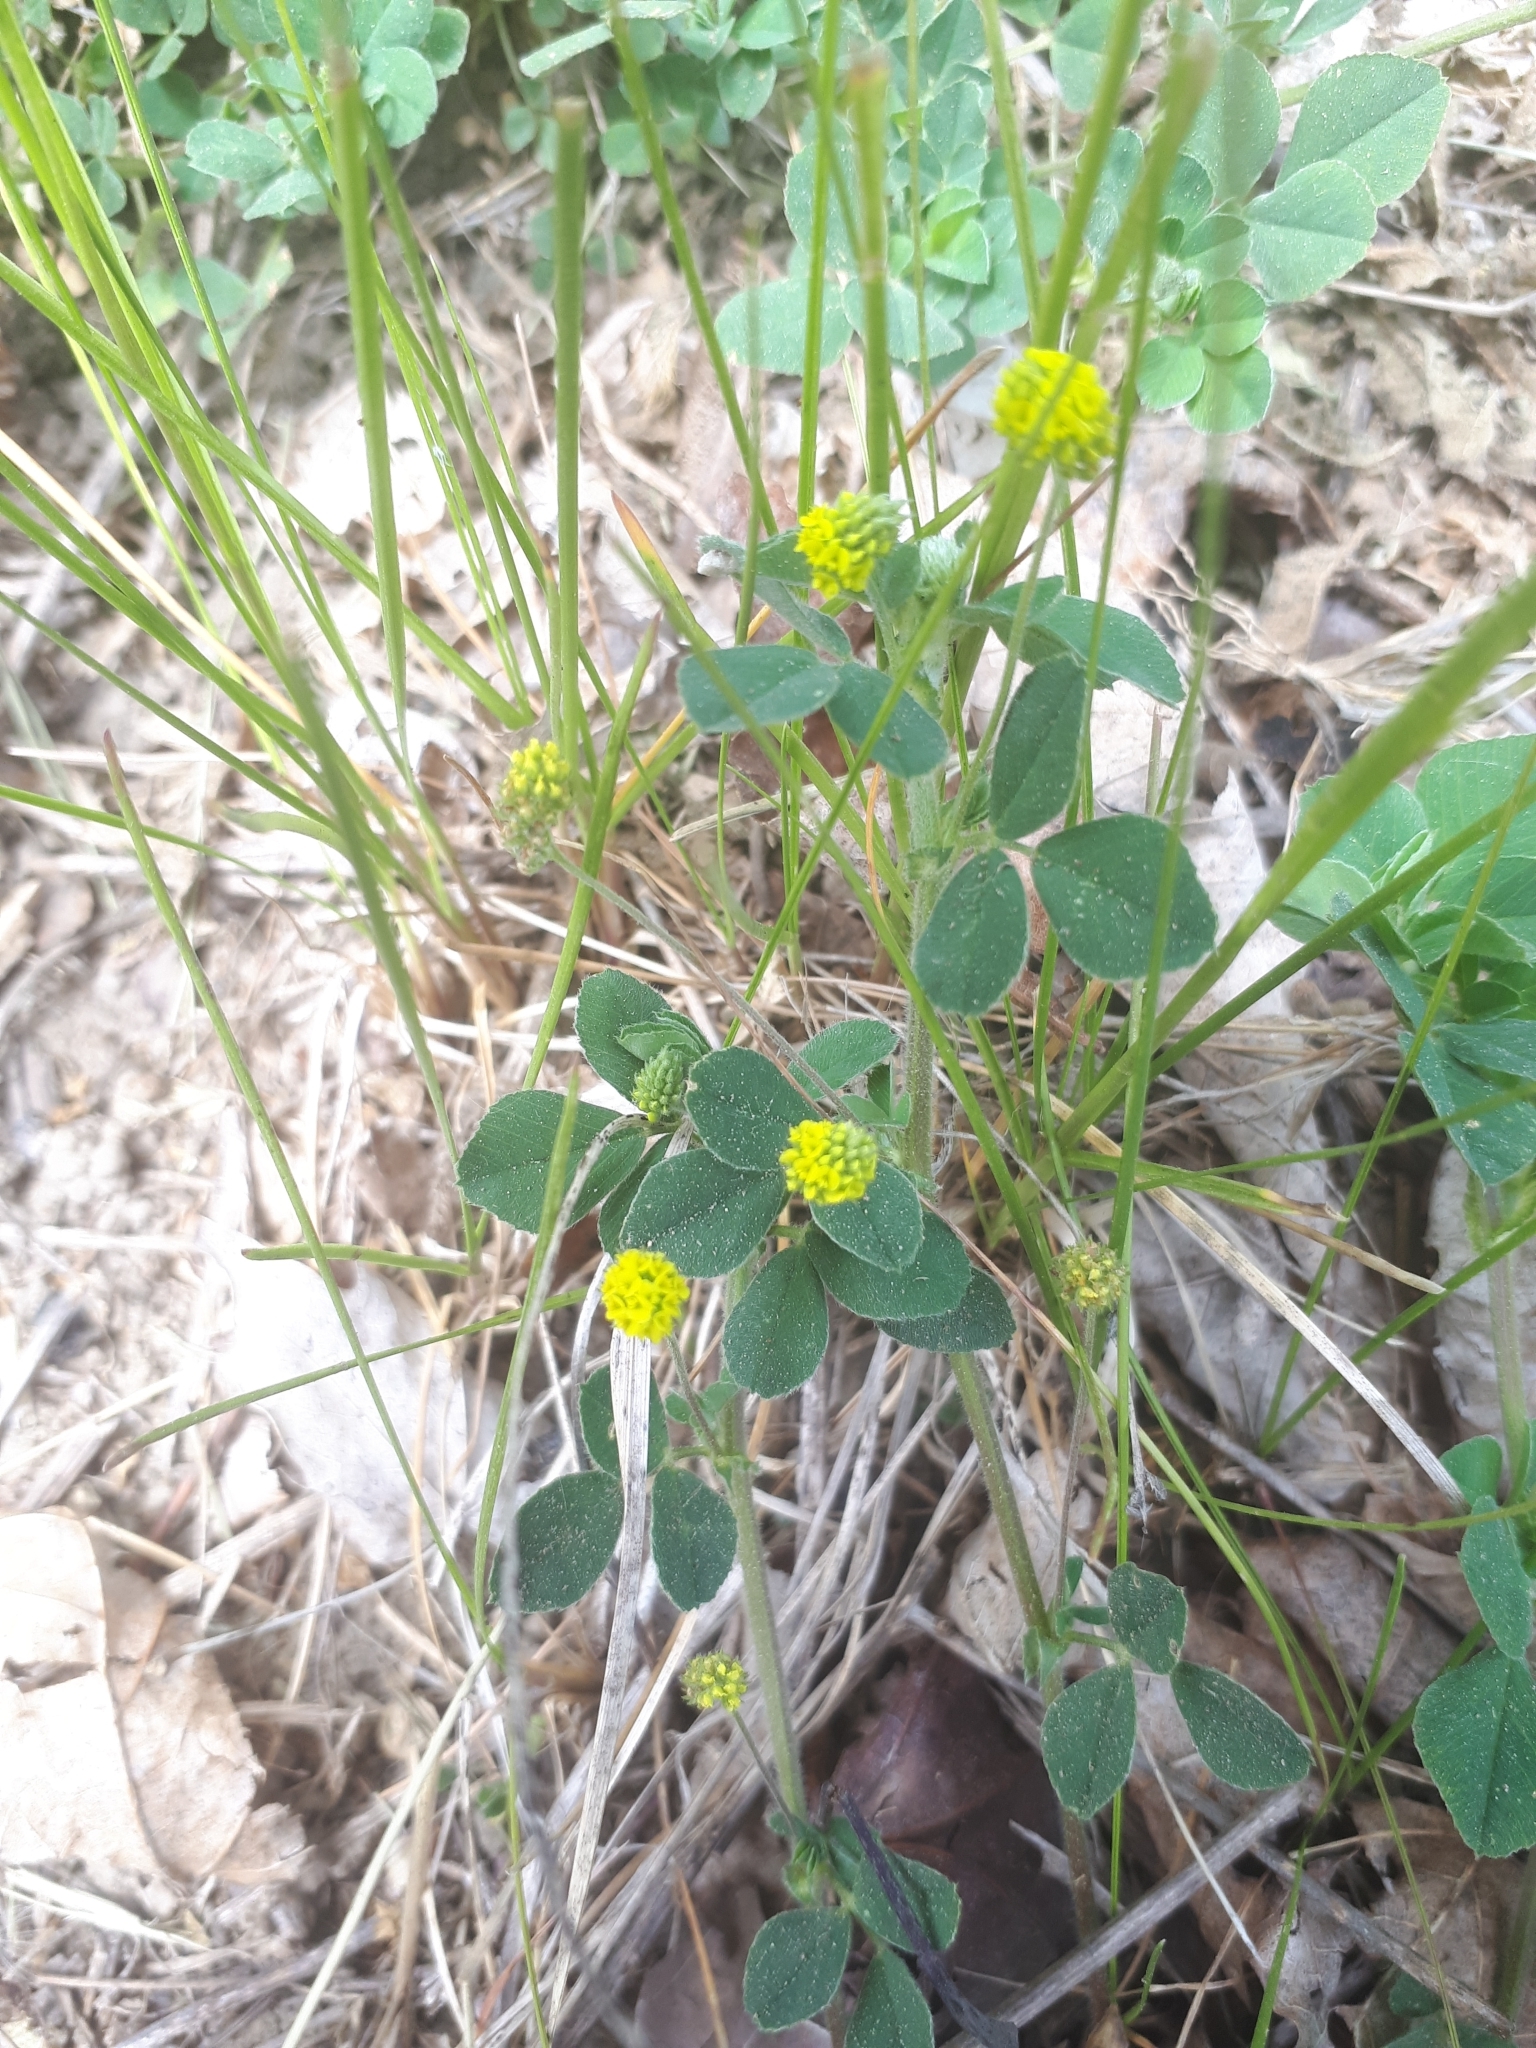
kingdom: Plantae
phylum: Tracheophyta
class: Magnoliopsida
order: Fabales
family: Fabaceae
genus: Medicago
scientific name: Medicago lupulina
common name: Black medick
